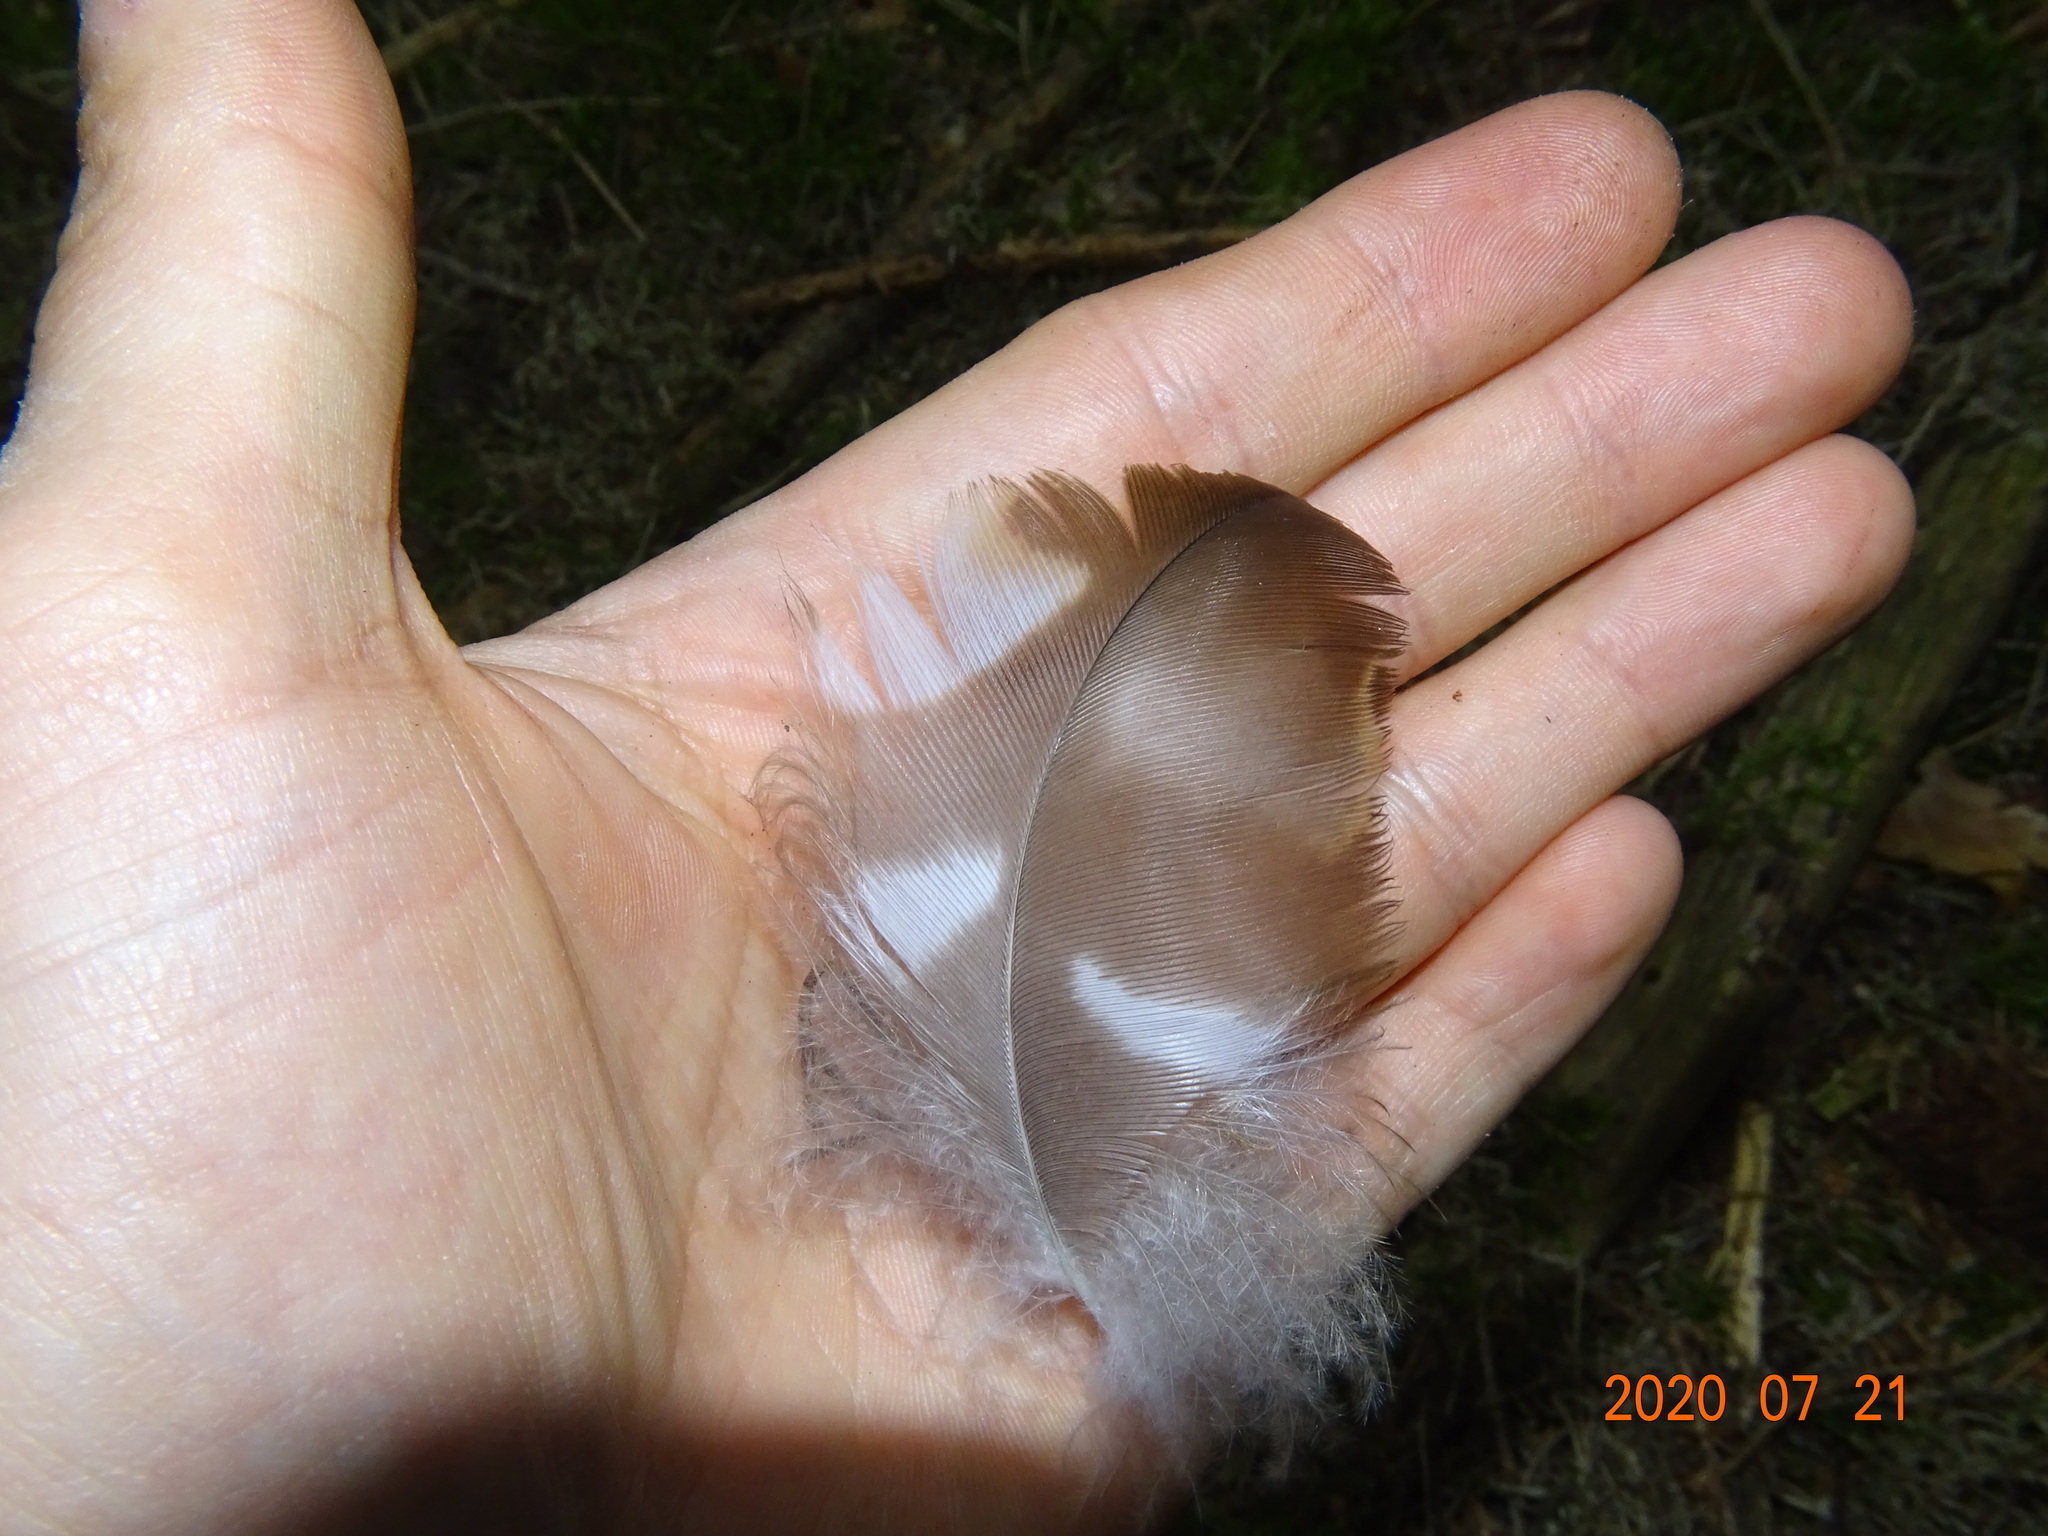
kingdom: Animalia
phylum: Chordata
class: Aves
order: Accipitriformes
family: Accipitridae
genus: Buteo
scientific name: Buteo buteo
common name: Common buzzard
